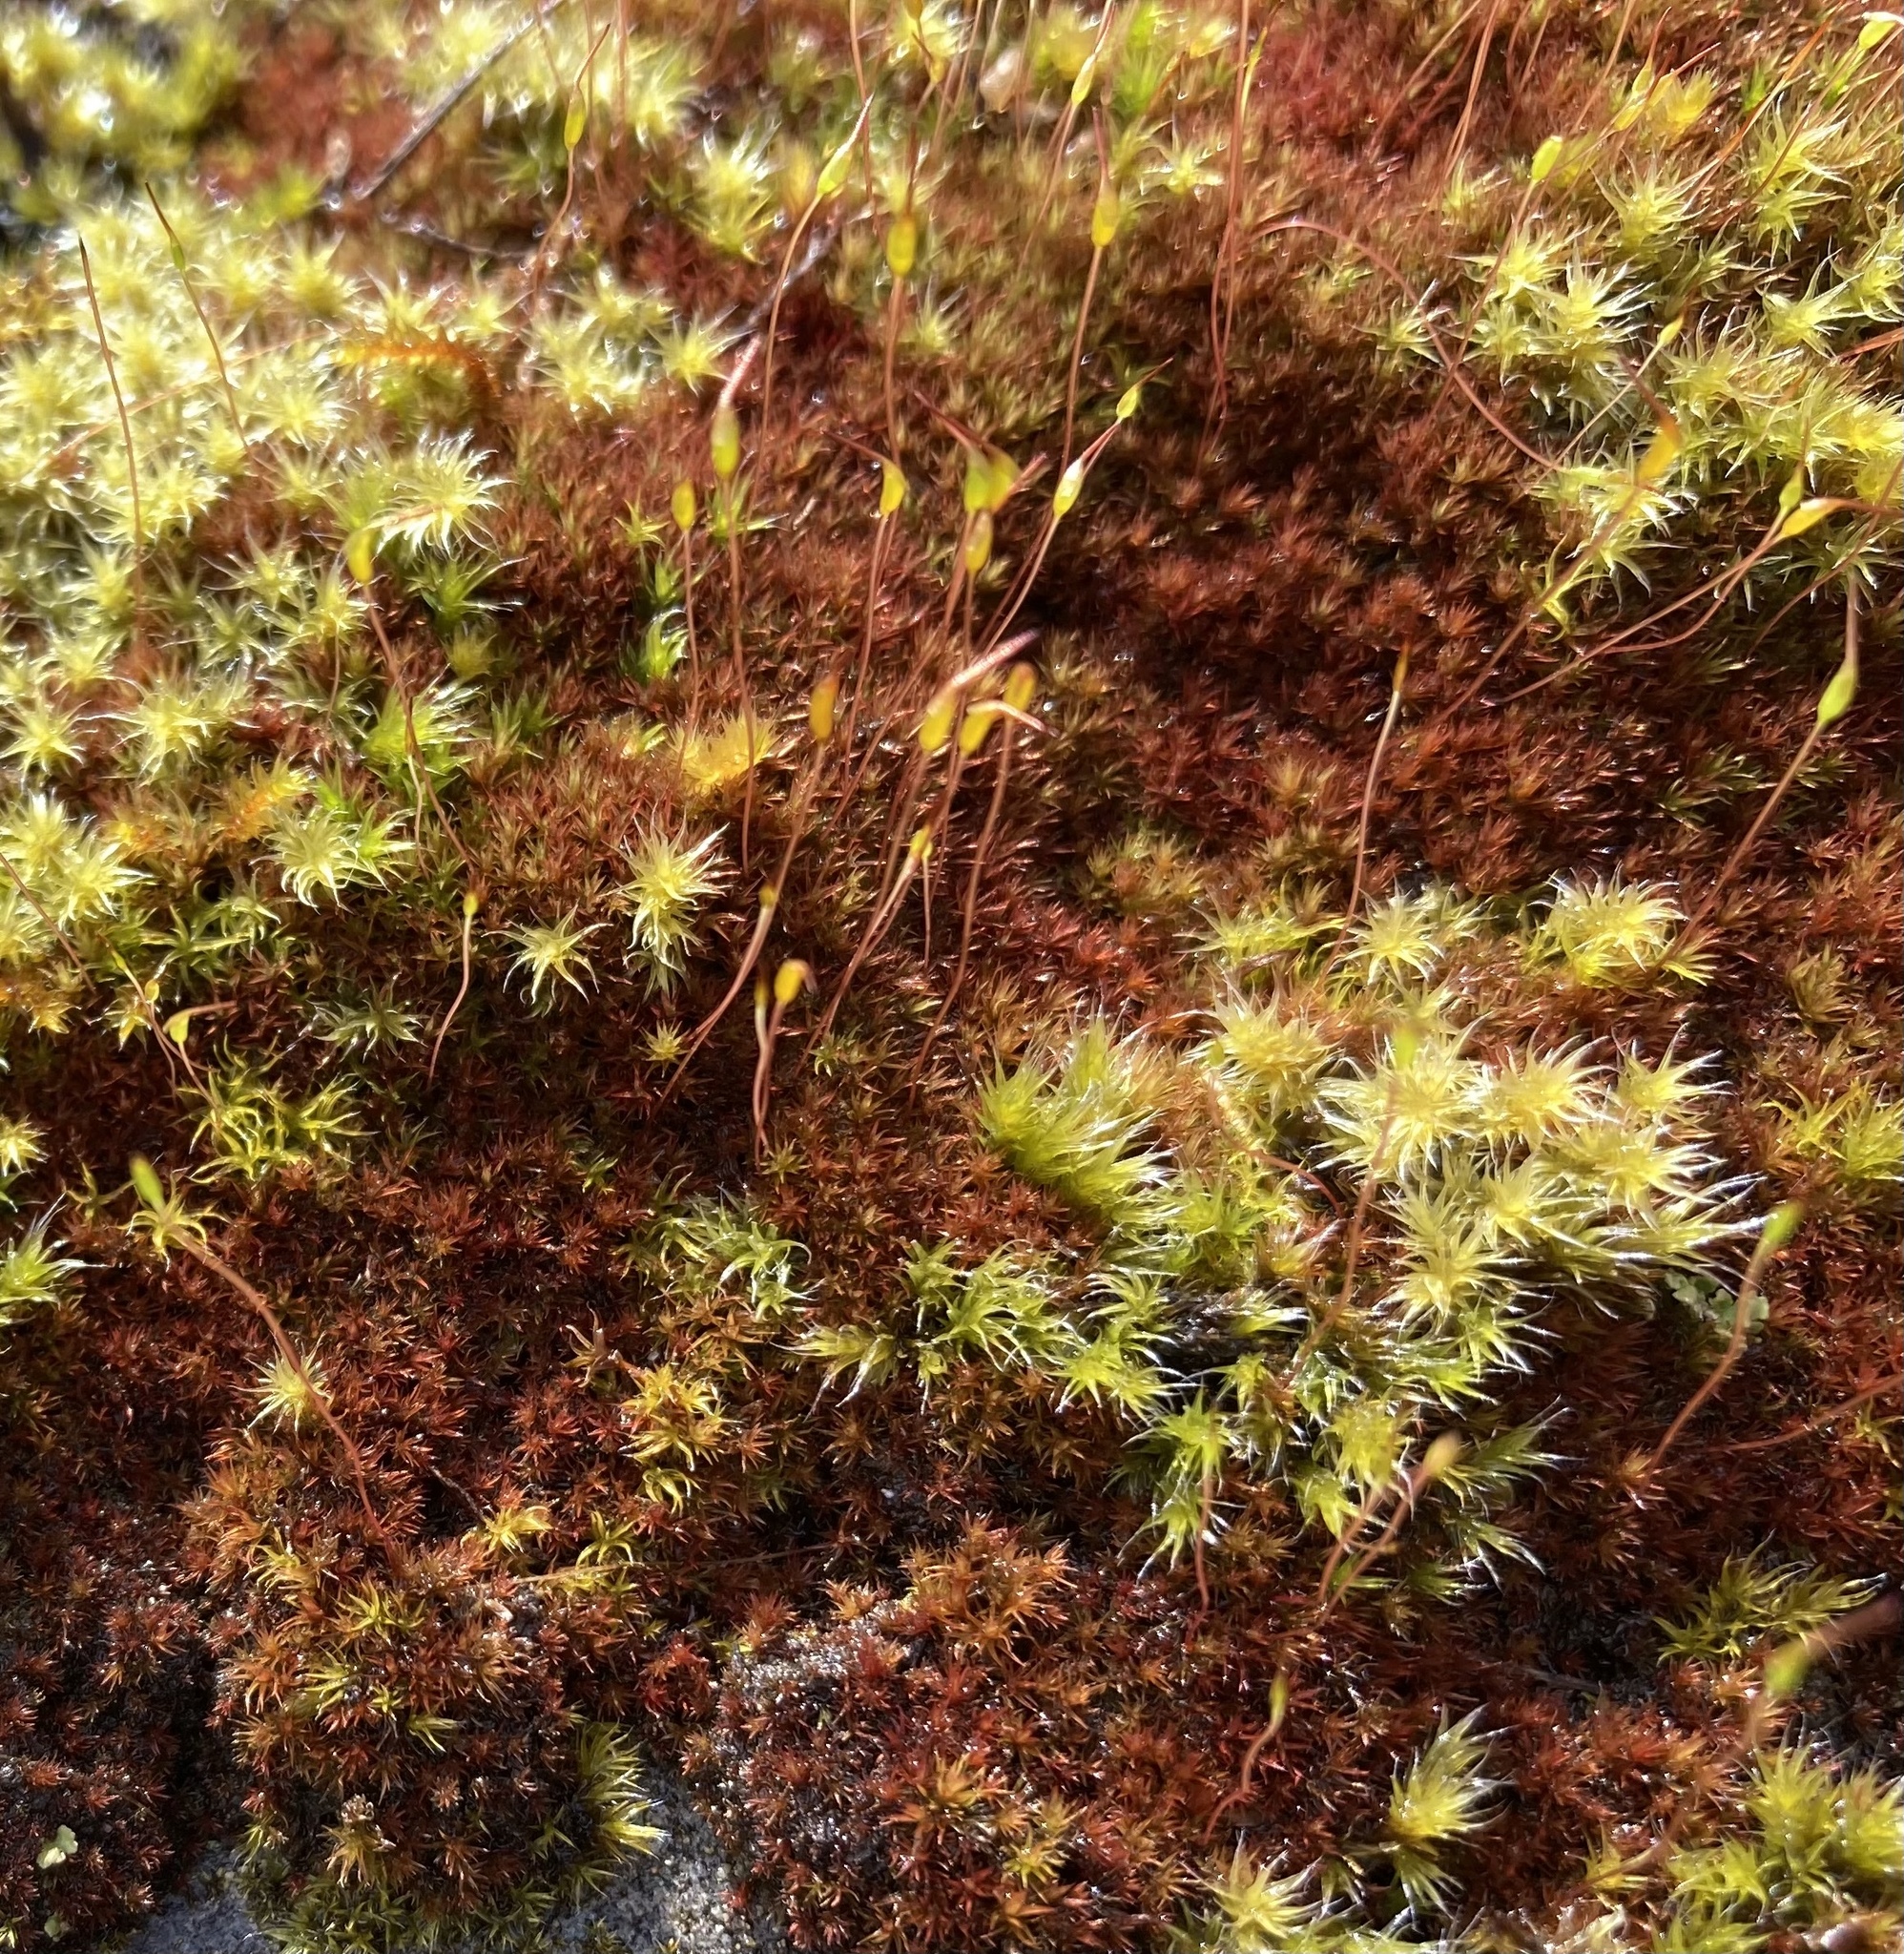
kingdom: Plantae
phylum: Bryophyta
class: Bryopsida
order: Dicranales
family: Ditrichaceae
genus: Ceratodon
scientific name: Ceratodon purpureus
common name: Redshank
